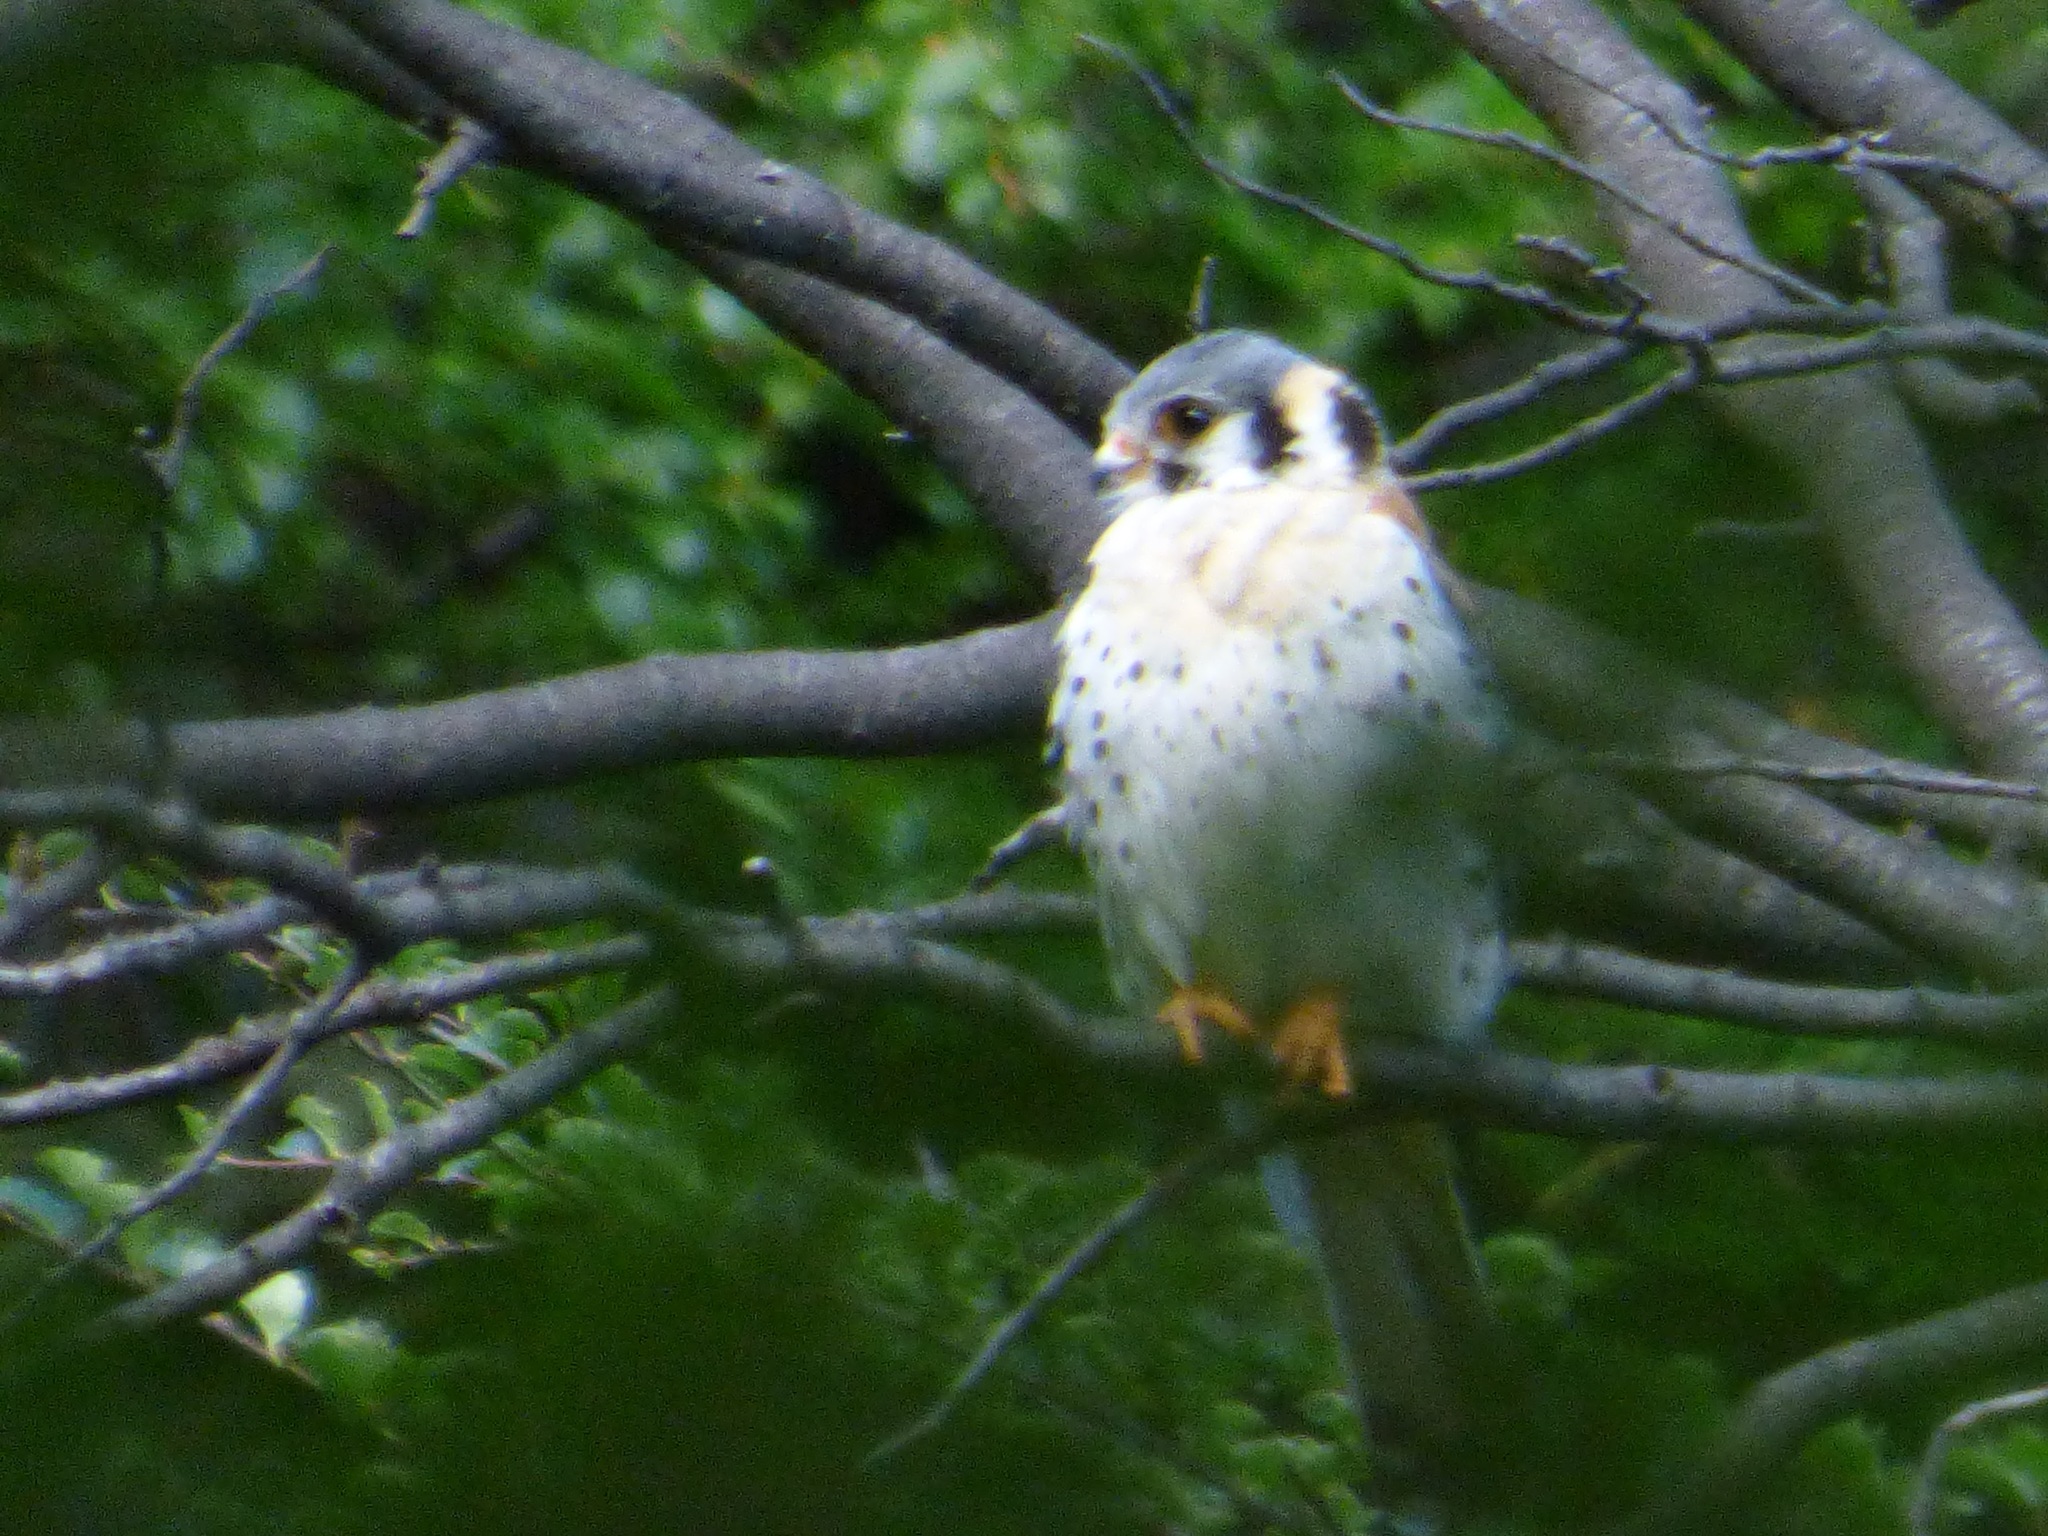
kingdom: Animalia
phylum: Chordata
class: Aves
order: Falconiformes
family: Falconidae
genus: Falco
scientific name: Falco sparverius
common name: American kestrel
